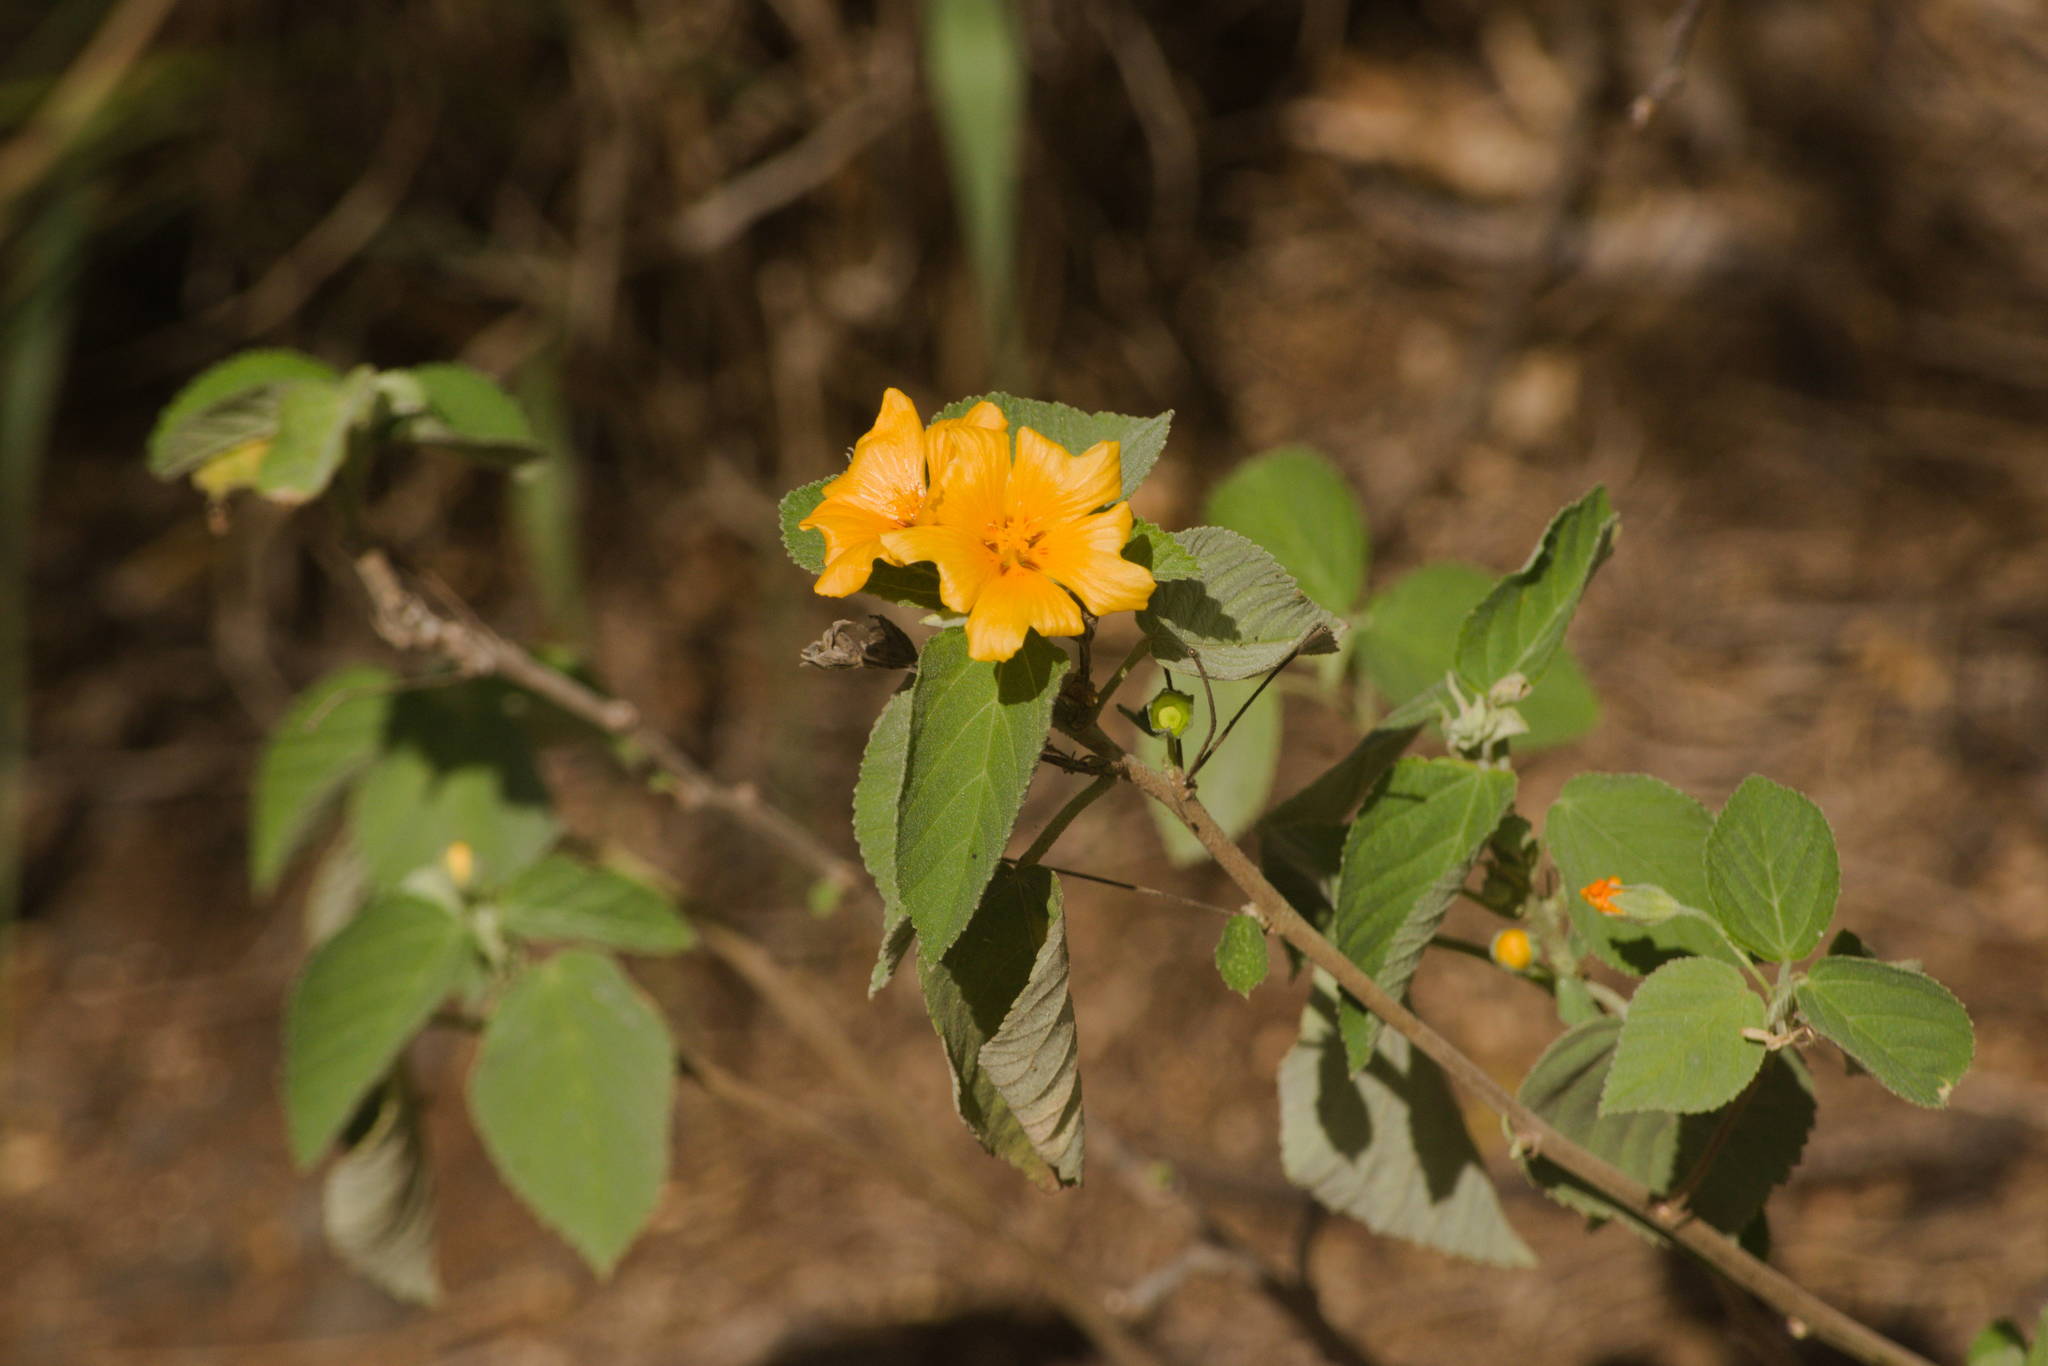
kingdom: Plantae
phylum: Tracheophyta
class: Magnoliopsida
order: Malvales
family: Malvaceae
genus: Sida
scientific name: Sida fallax
